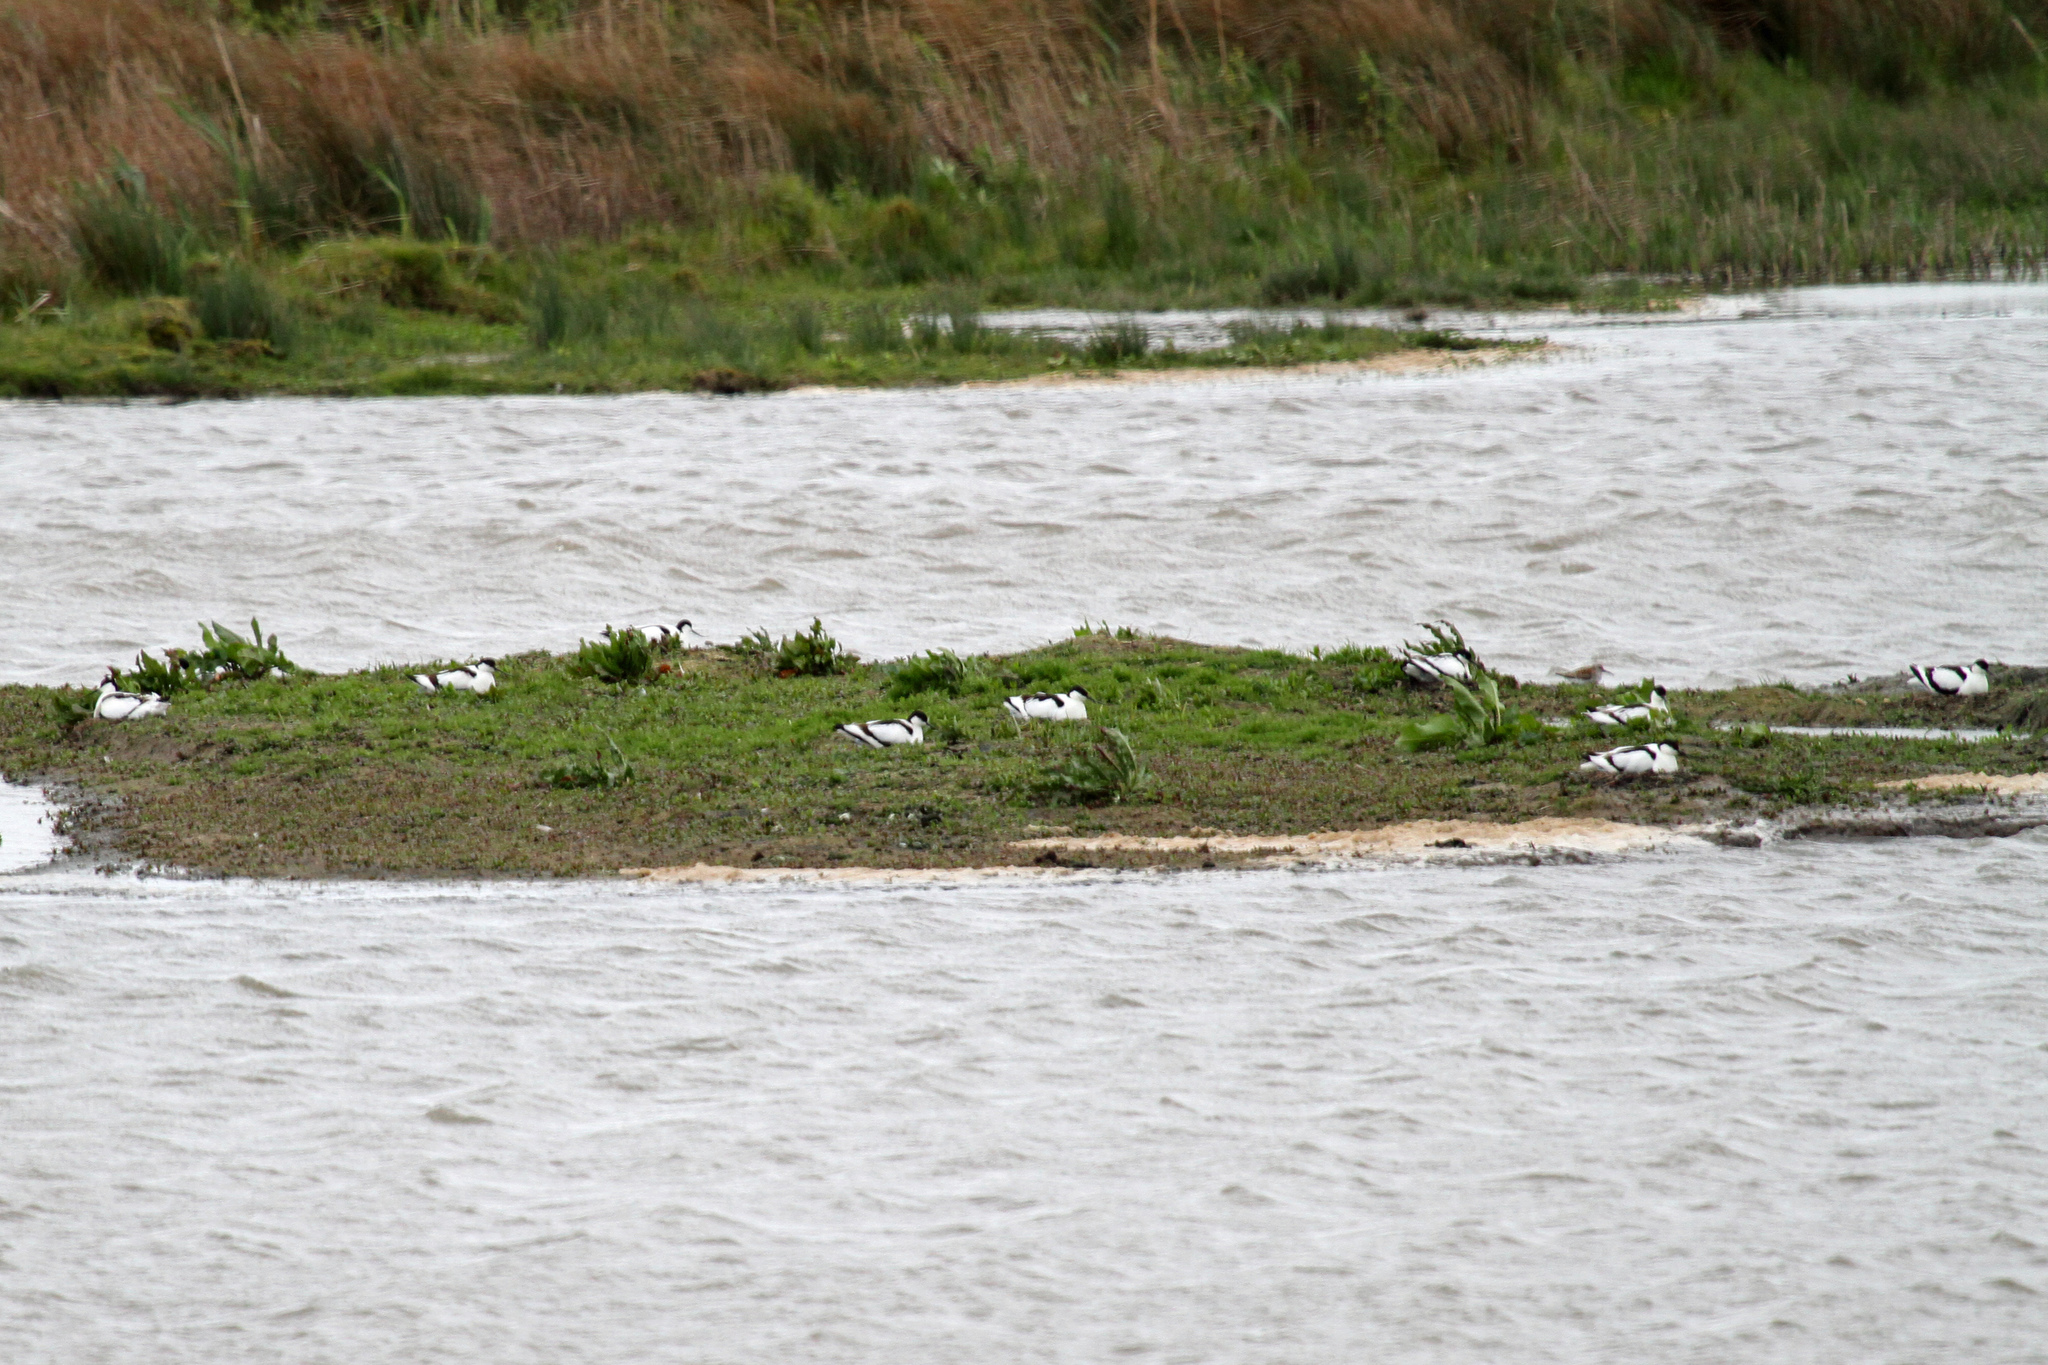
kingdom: Animalia
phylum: Chordata
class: Aves
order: Charadriiformes
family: Recurvirostridae
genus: Recurvirostra
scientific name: Recurvirostra avosetta
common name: Pied avocet
